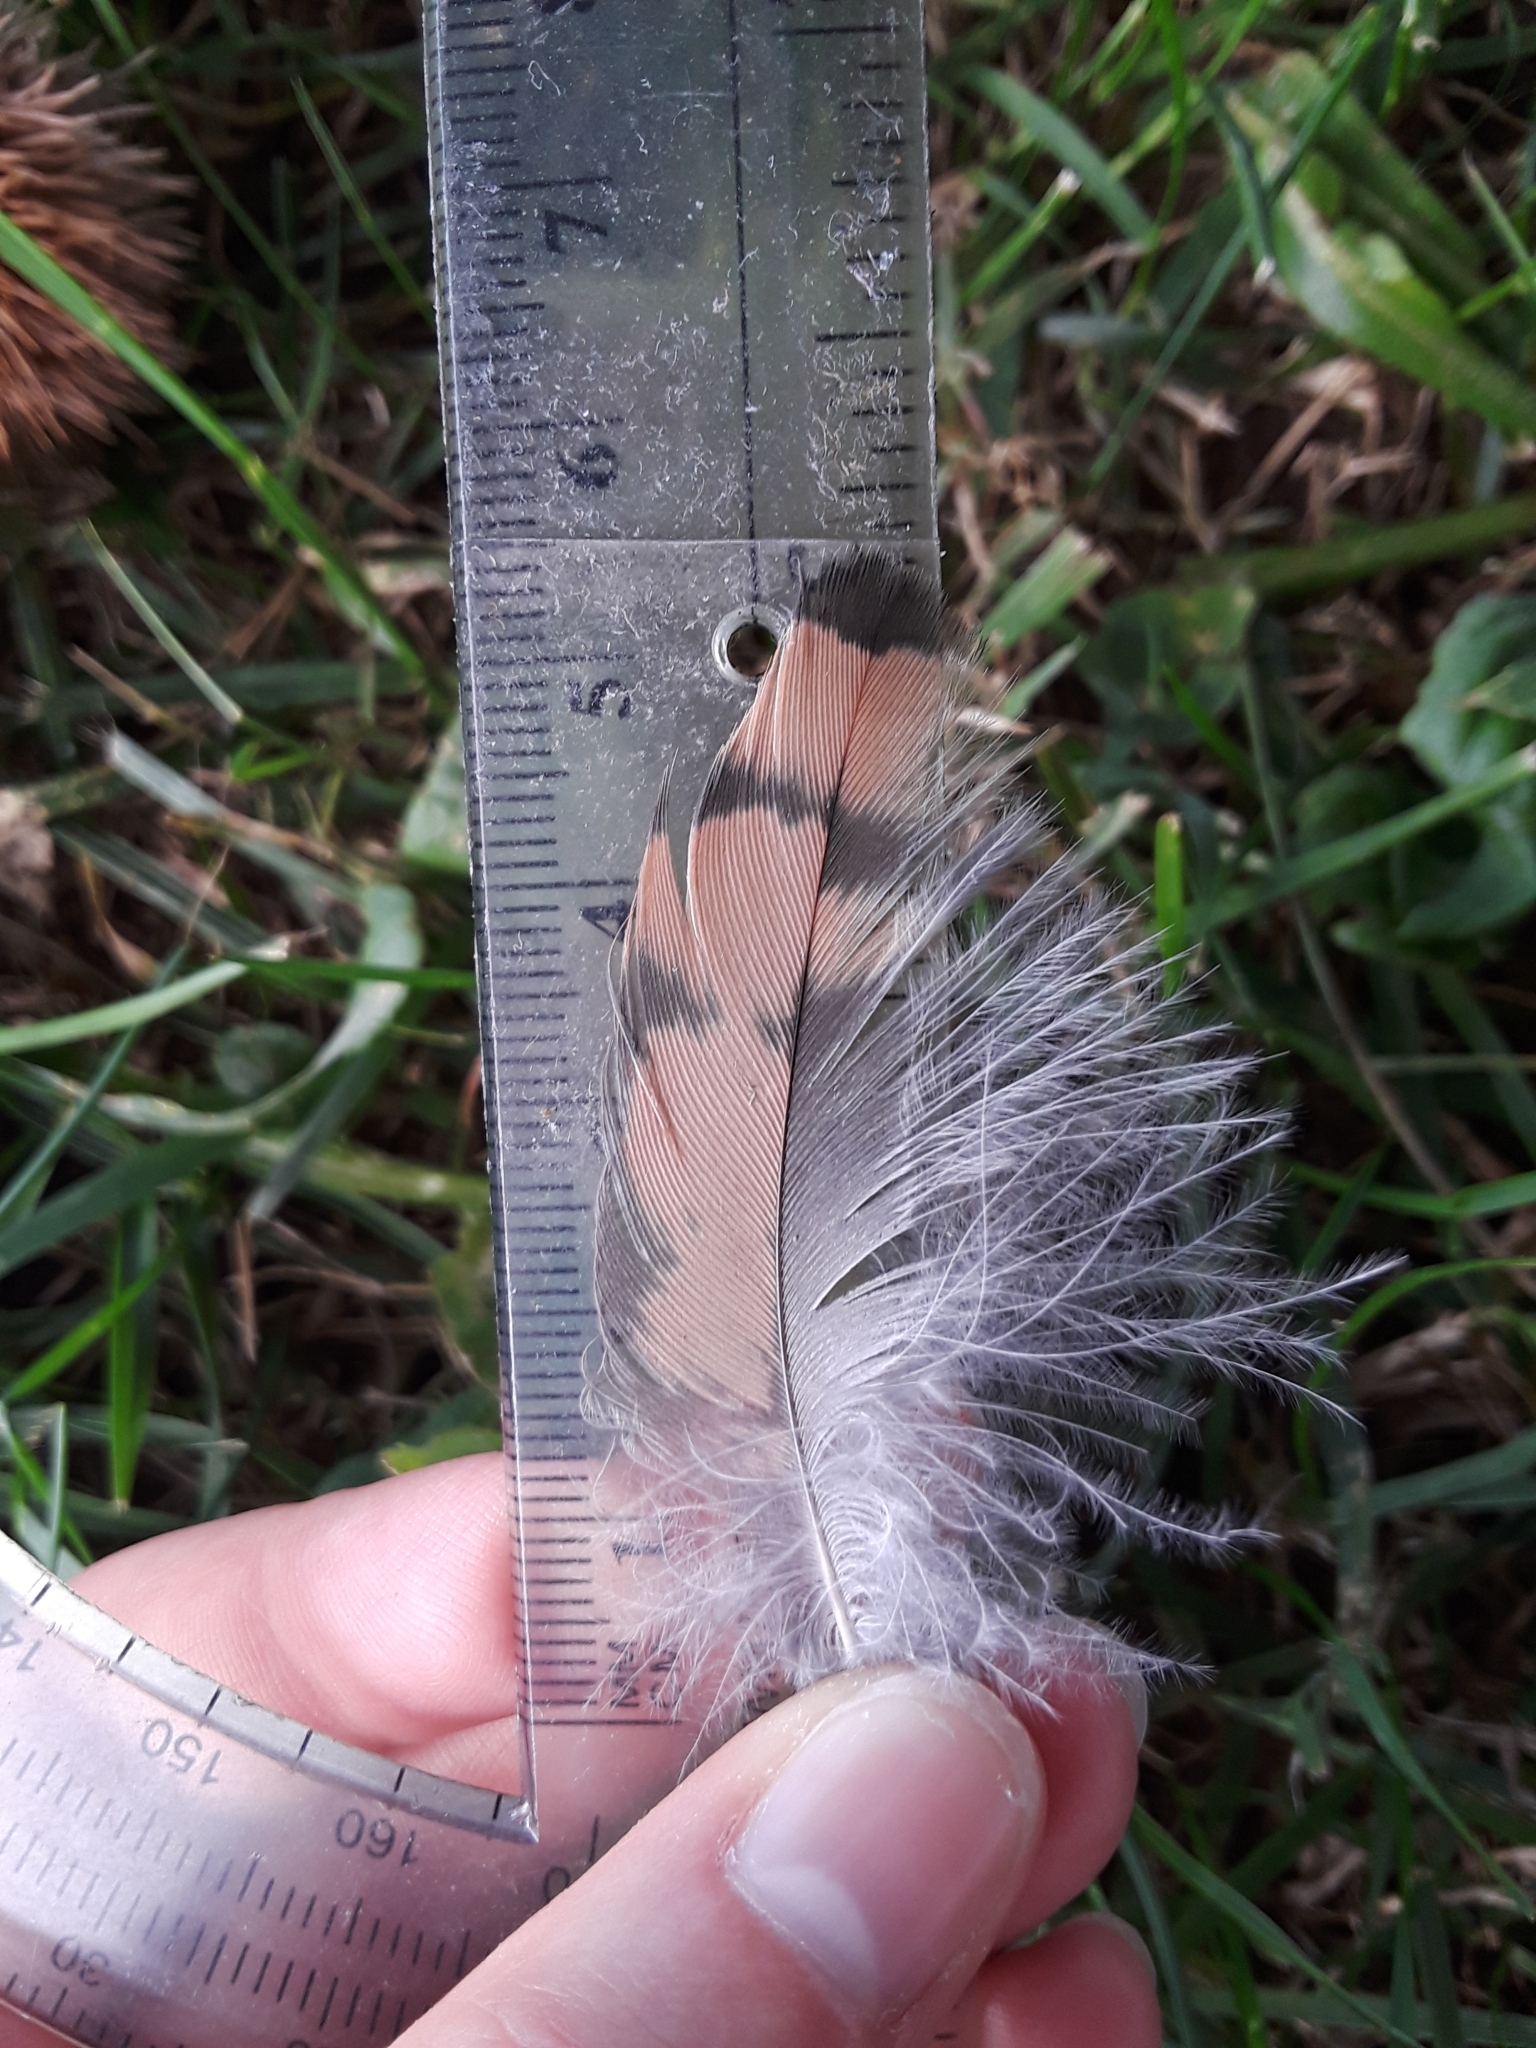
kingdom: Animalia
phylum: Chordata
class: Aves
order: Falconiformes
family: Falconidae
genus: Falco
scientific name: Falco sparverius
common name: American kestrel
